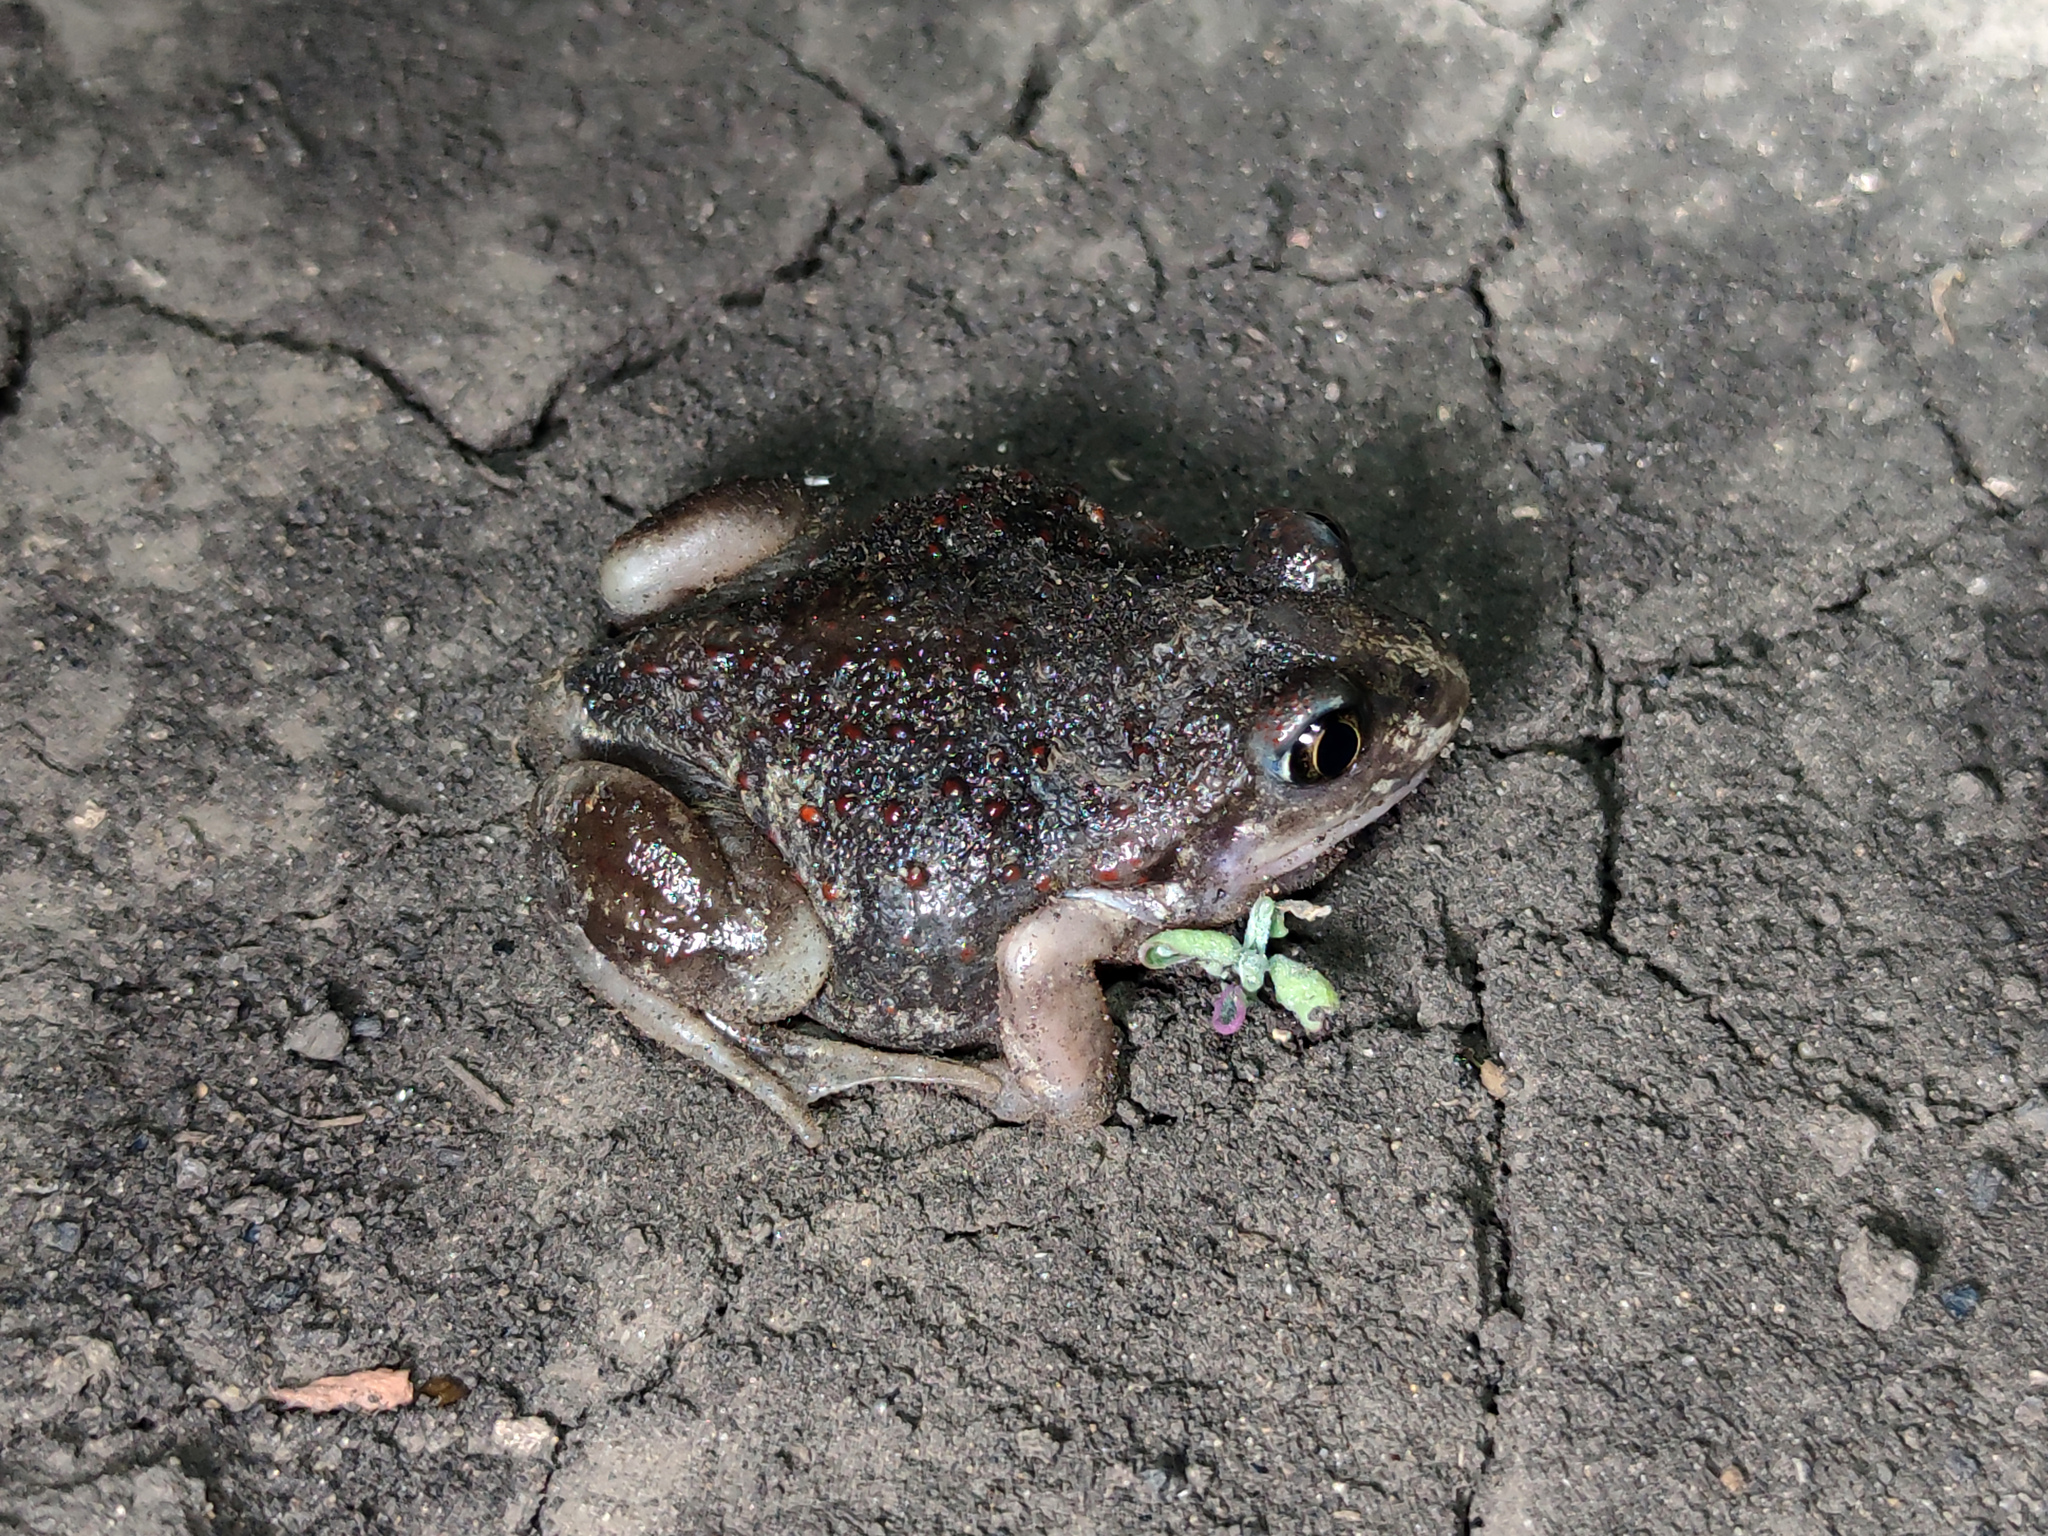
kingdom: Animalia
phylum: Chordata
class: Amphibia
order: Anura
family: Pelobatidae
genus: Pelobates
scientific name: Pelobates vespertinus
